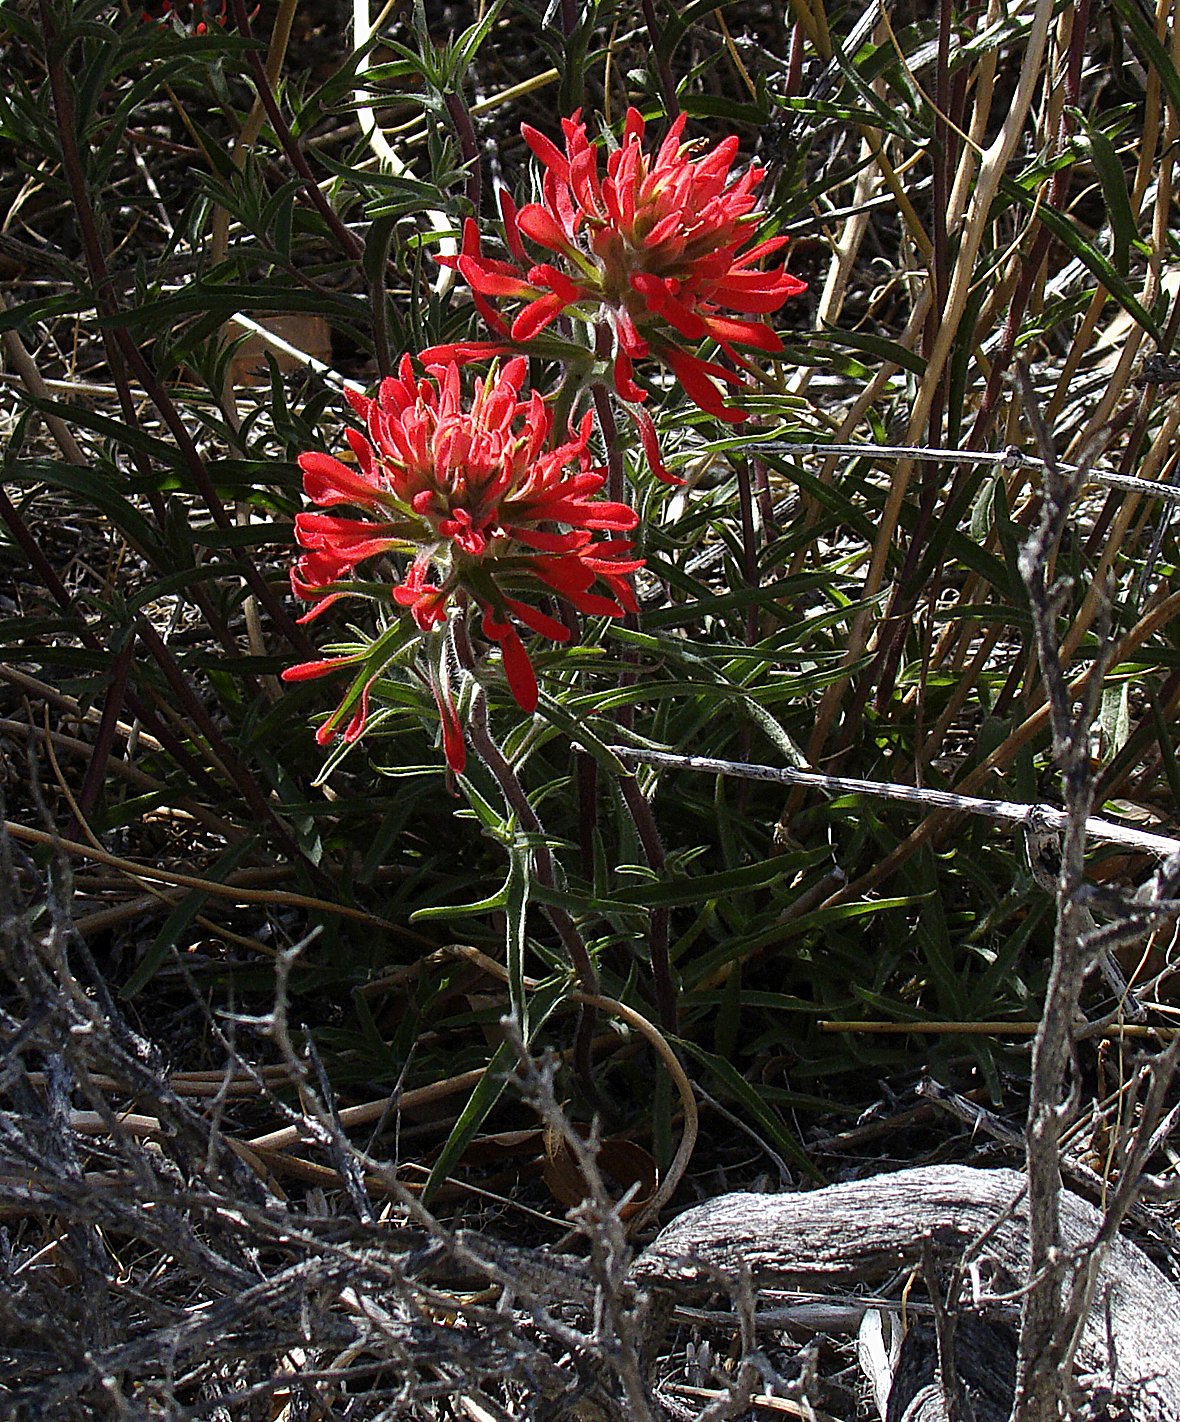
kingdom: Plantae
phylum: Tracheophyta
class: Magnoliopsida
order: Lamiales
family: Orobanchaceae
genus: Castilleja
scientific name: Castilleja chromosa
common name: Desert paintbrush
